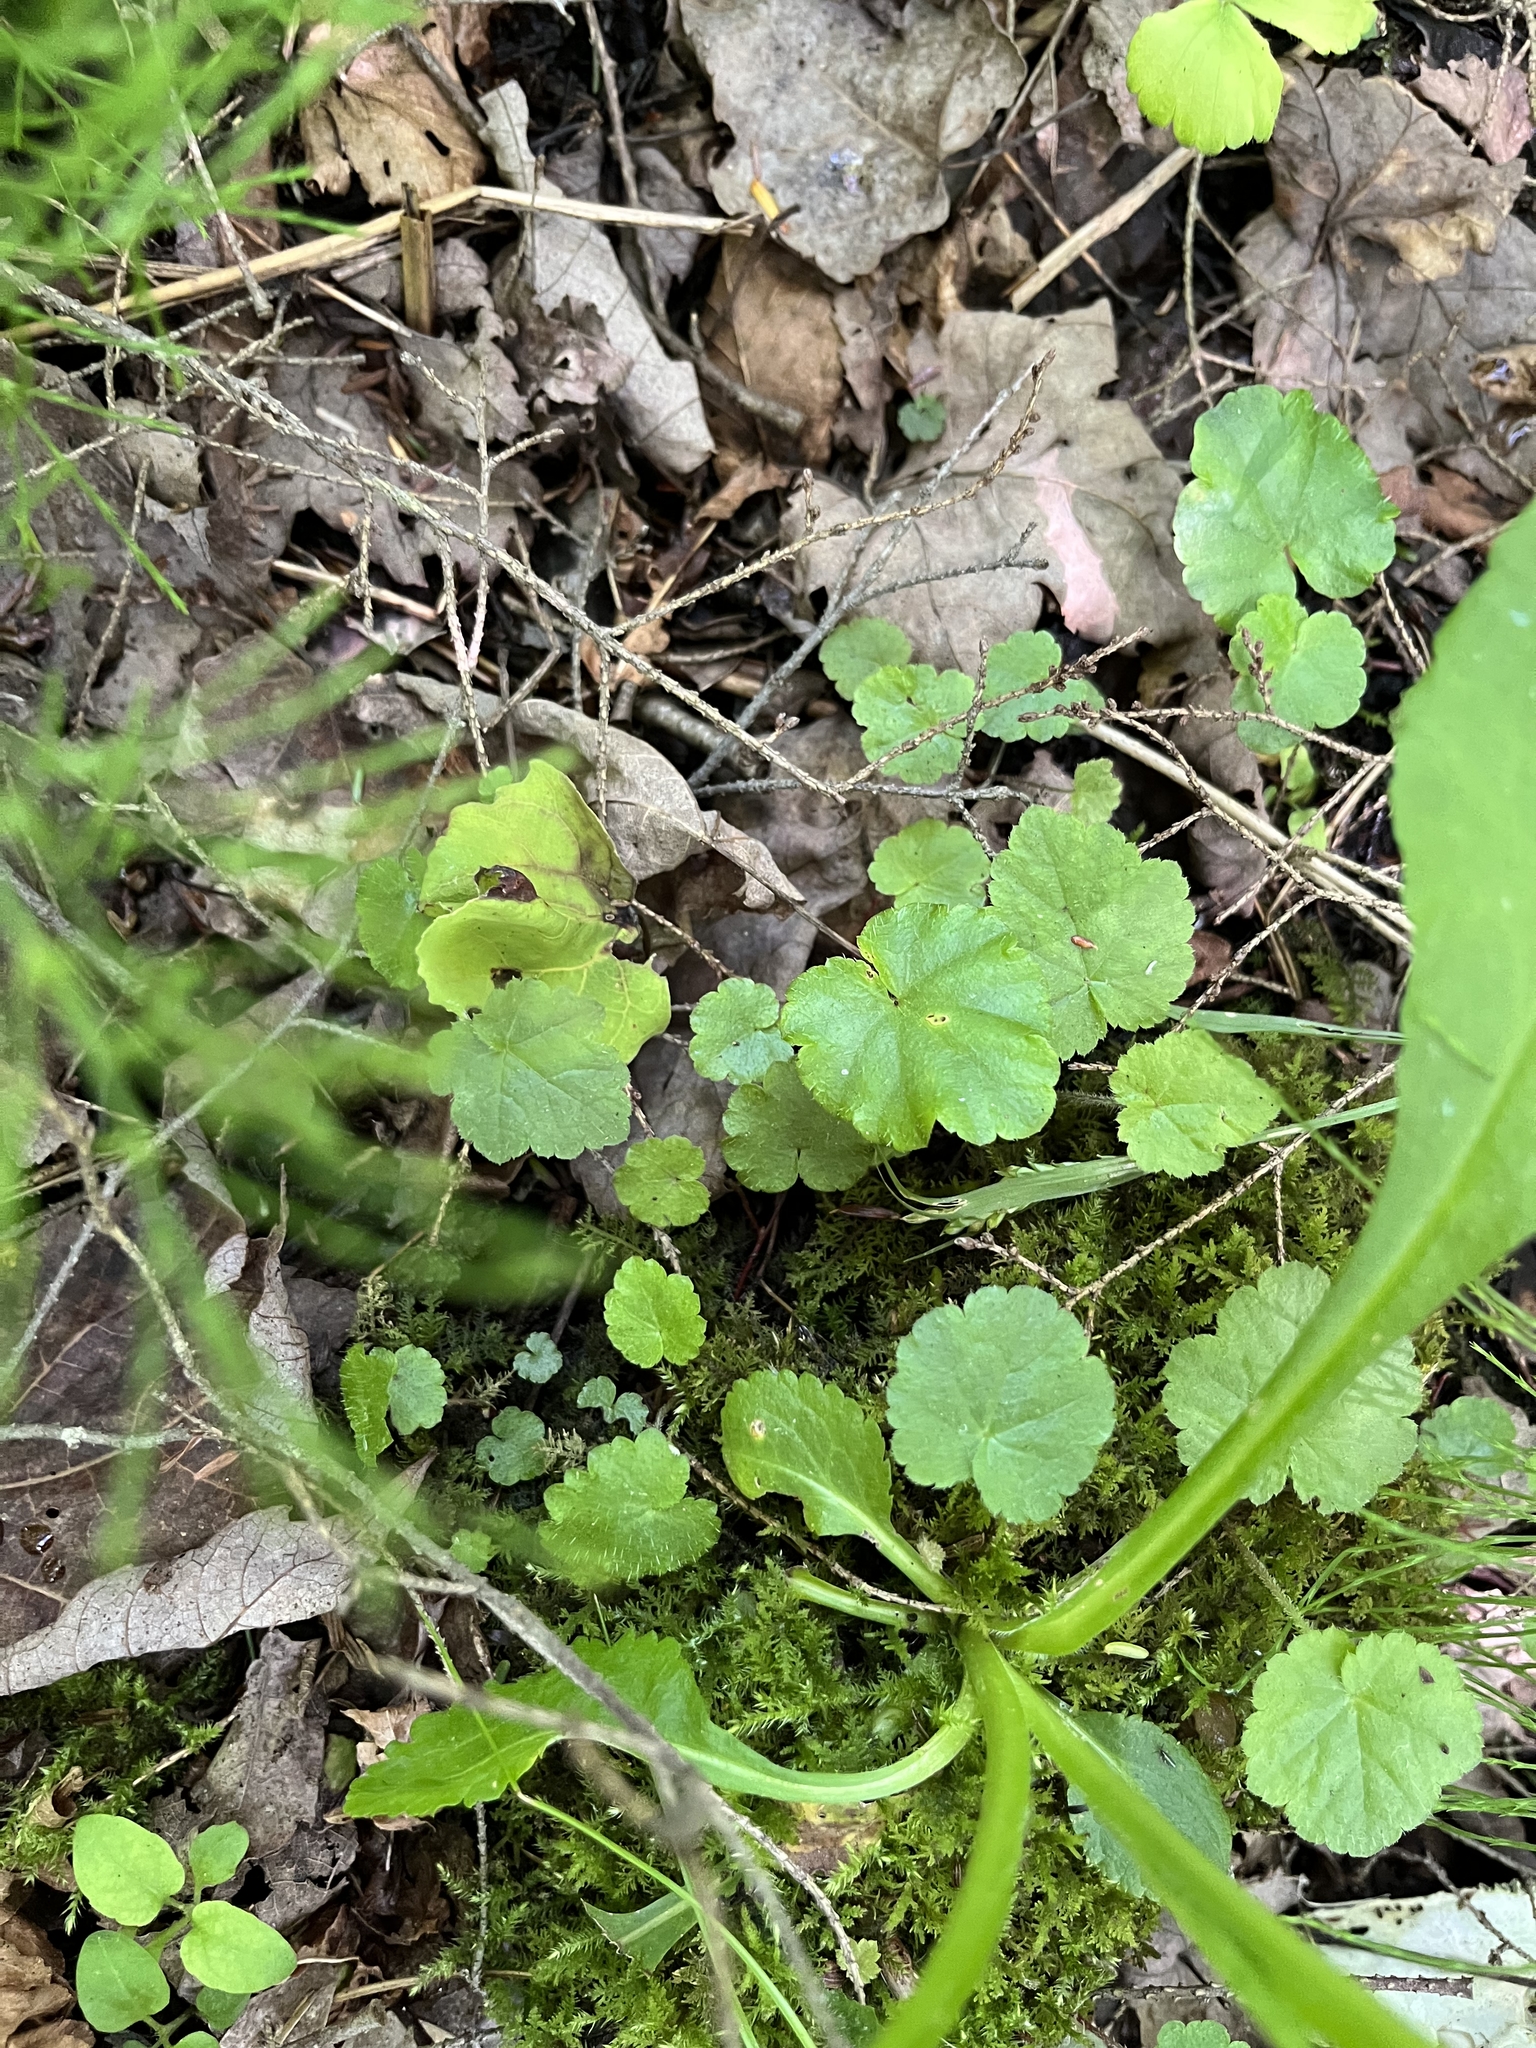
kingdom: Plantae
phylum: Tracheophyta
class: Magnoliopsida
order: Saxifragales
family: Saxifragaceae
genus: Mitella
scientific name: Mitella nuda
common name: Bare-stemmed bishop's-cap
